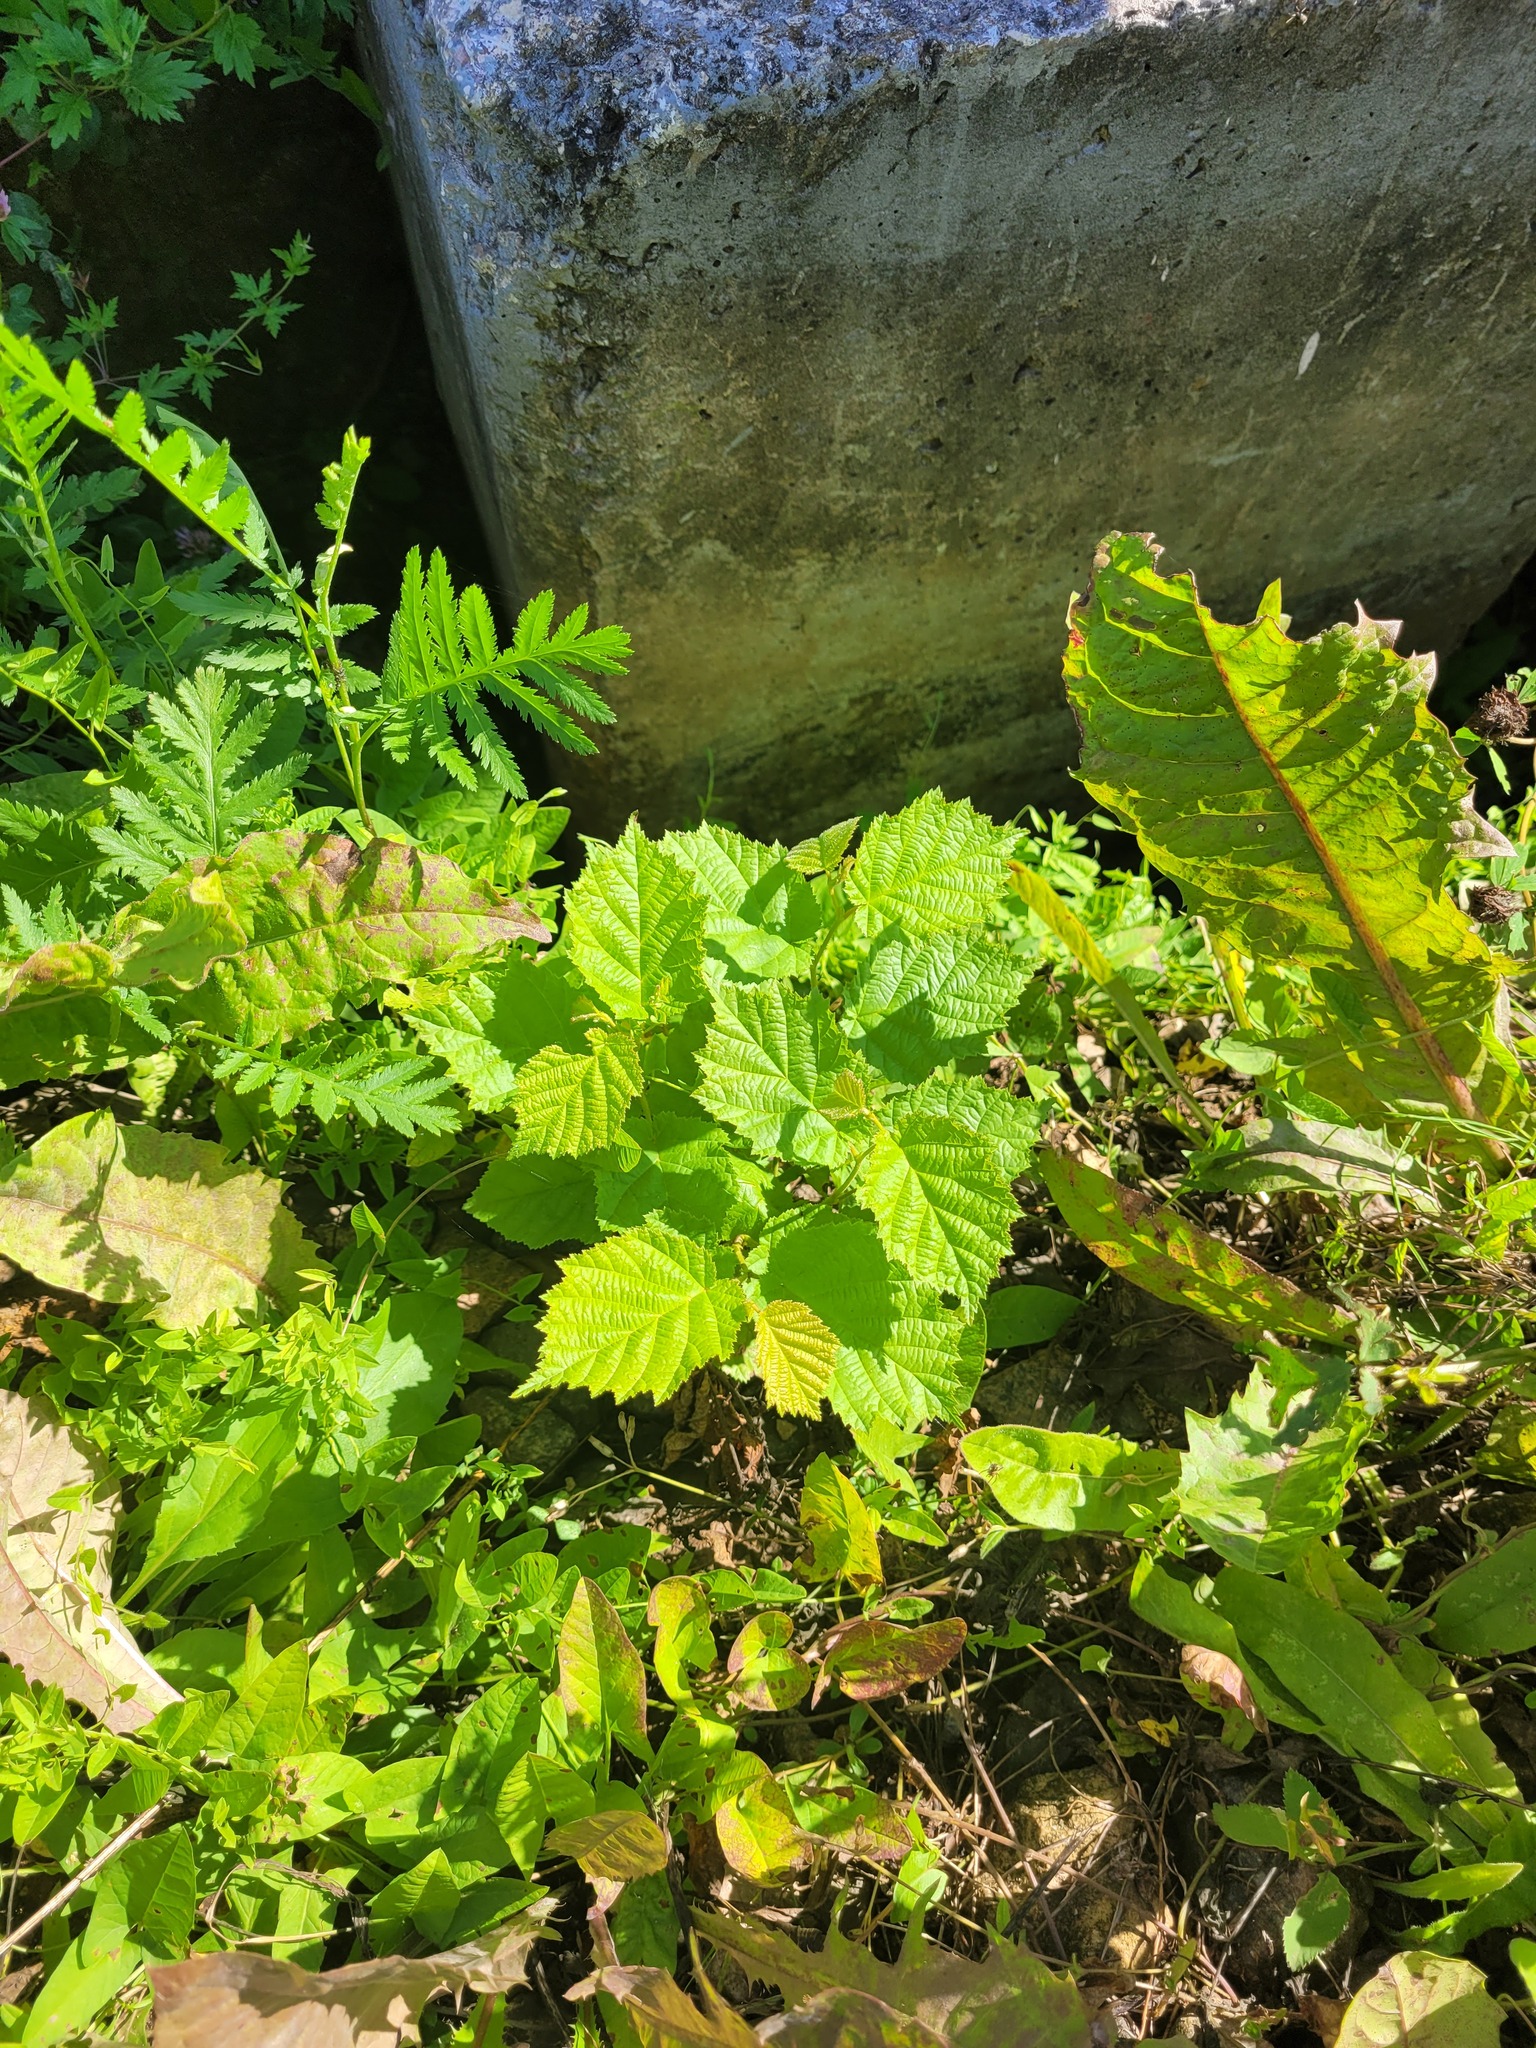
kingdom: Plantae
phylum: Tracheophyta
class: Magnoliopsida
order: Fagales
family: Betulaceae
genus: Corylus
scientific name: Corylus avellana
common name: European hazel
